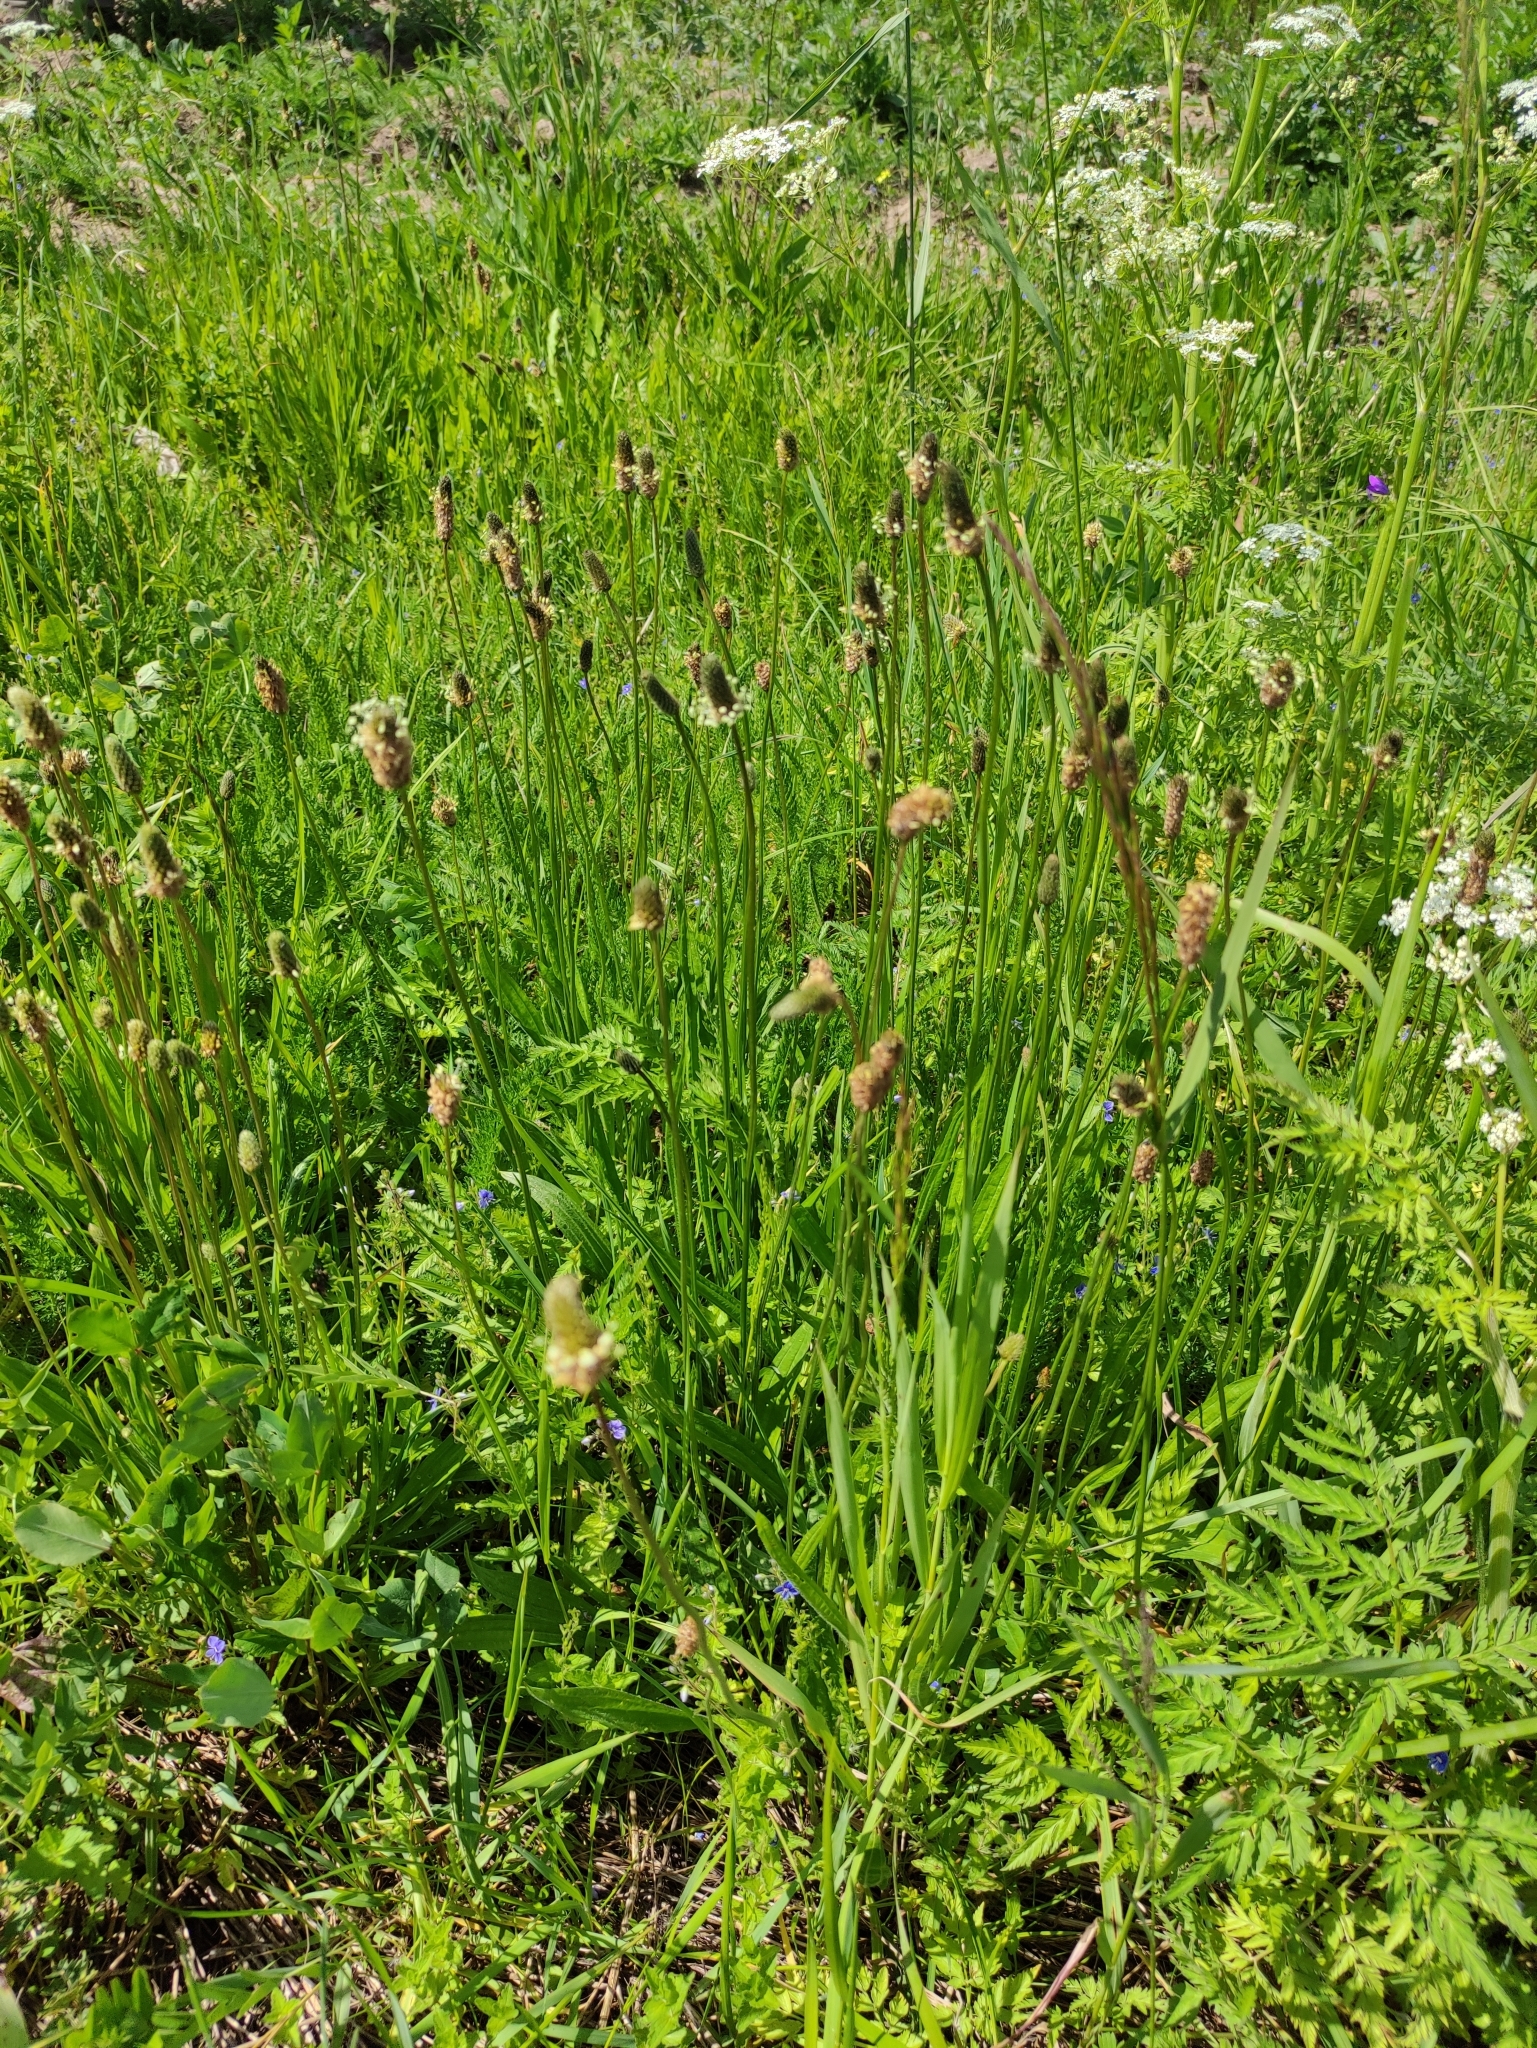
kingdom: Plantae
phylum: Tracheophyta
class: Magnoliopsida
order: Lamiales
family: Plantaginaceae
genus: Plantago
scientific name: Plantago lanceolata
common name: Ribwort plantain
